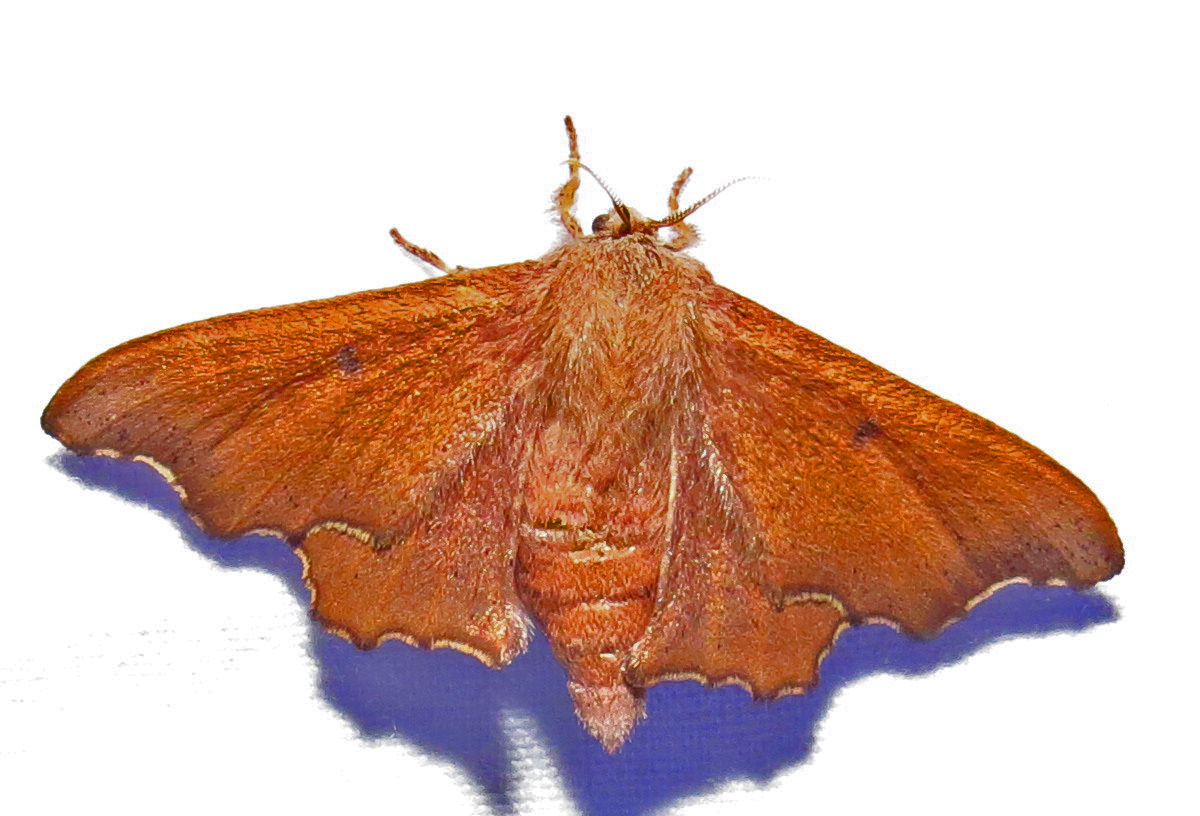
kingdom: Animalia
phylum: Arthropoda
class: Insecta
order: Lepidoptera
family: Mimallonidae
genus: Lacosoma
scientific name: Lacosoma chiridota
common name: Scalloped sack-bearer moth
